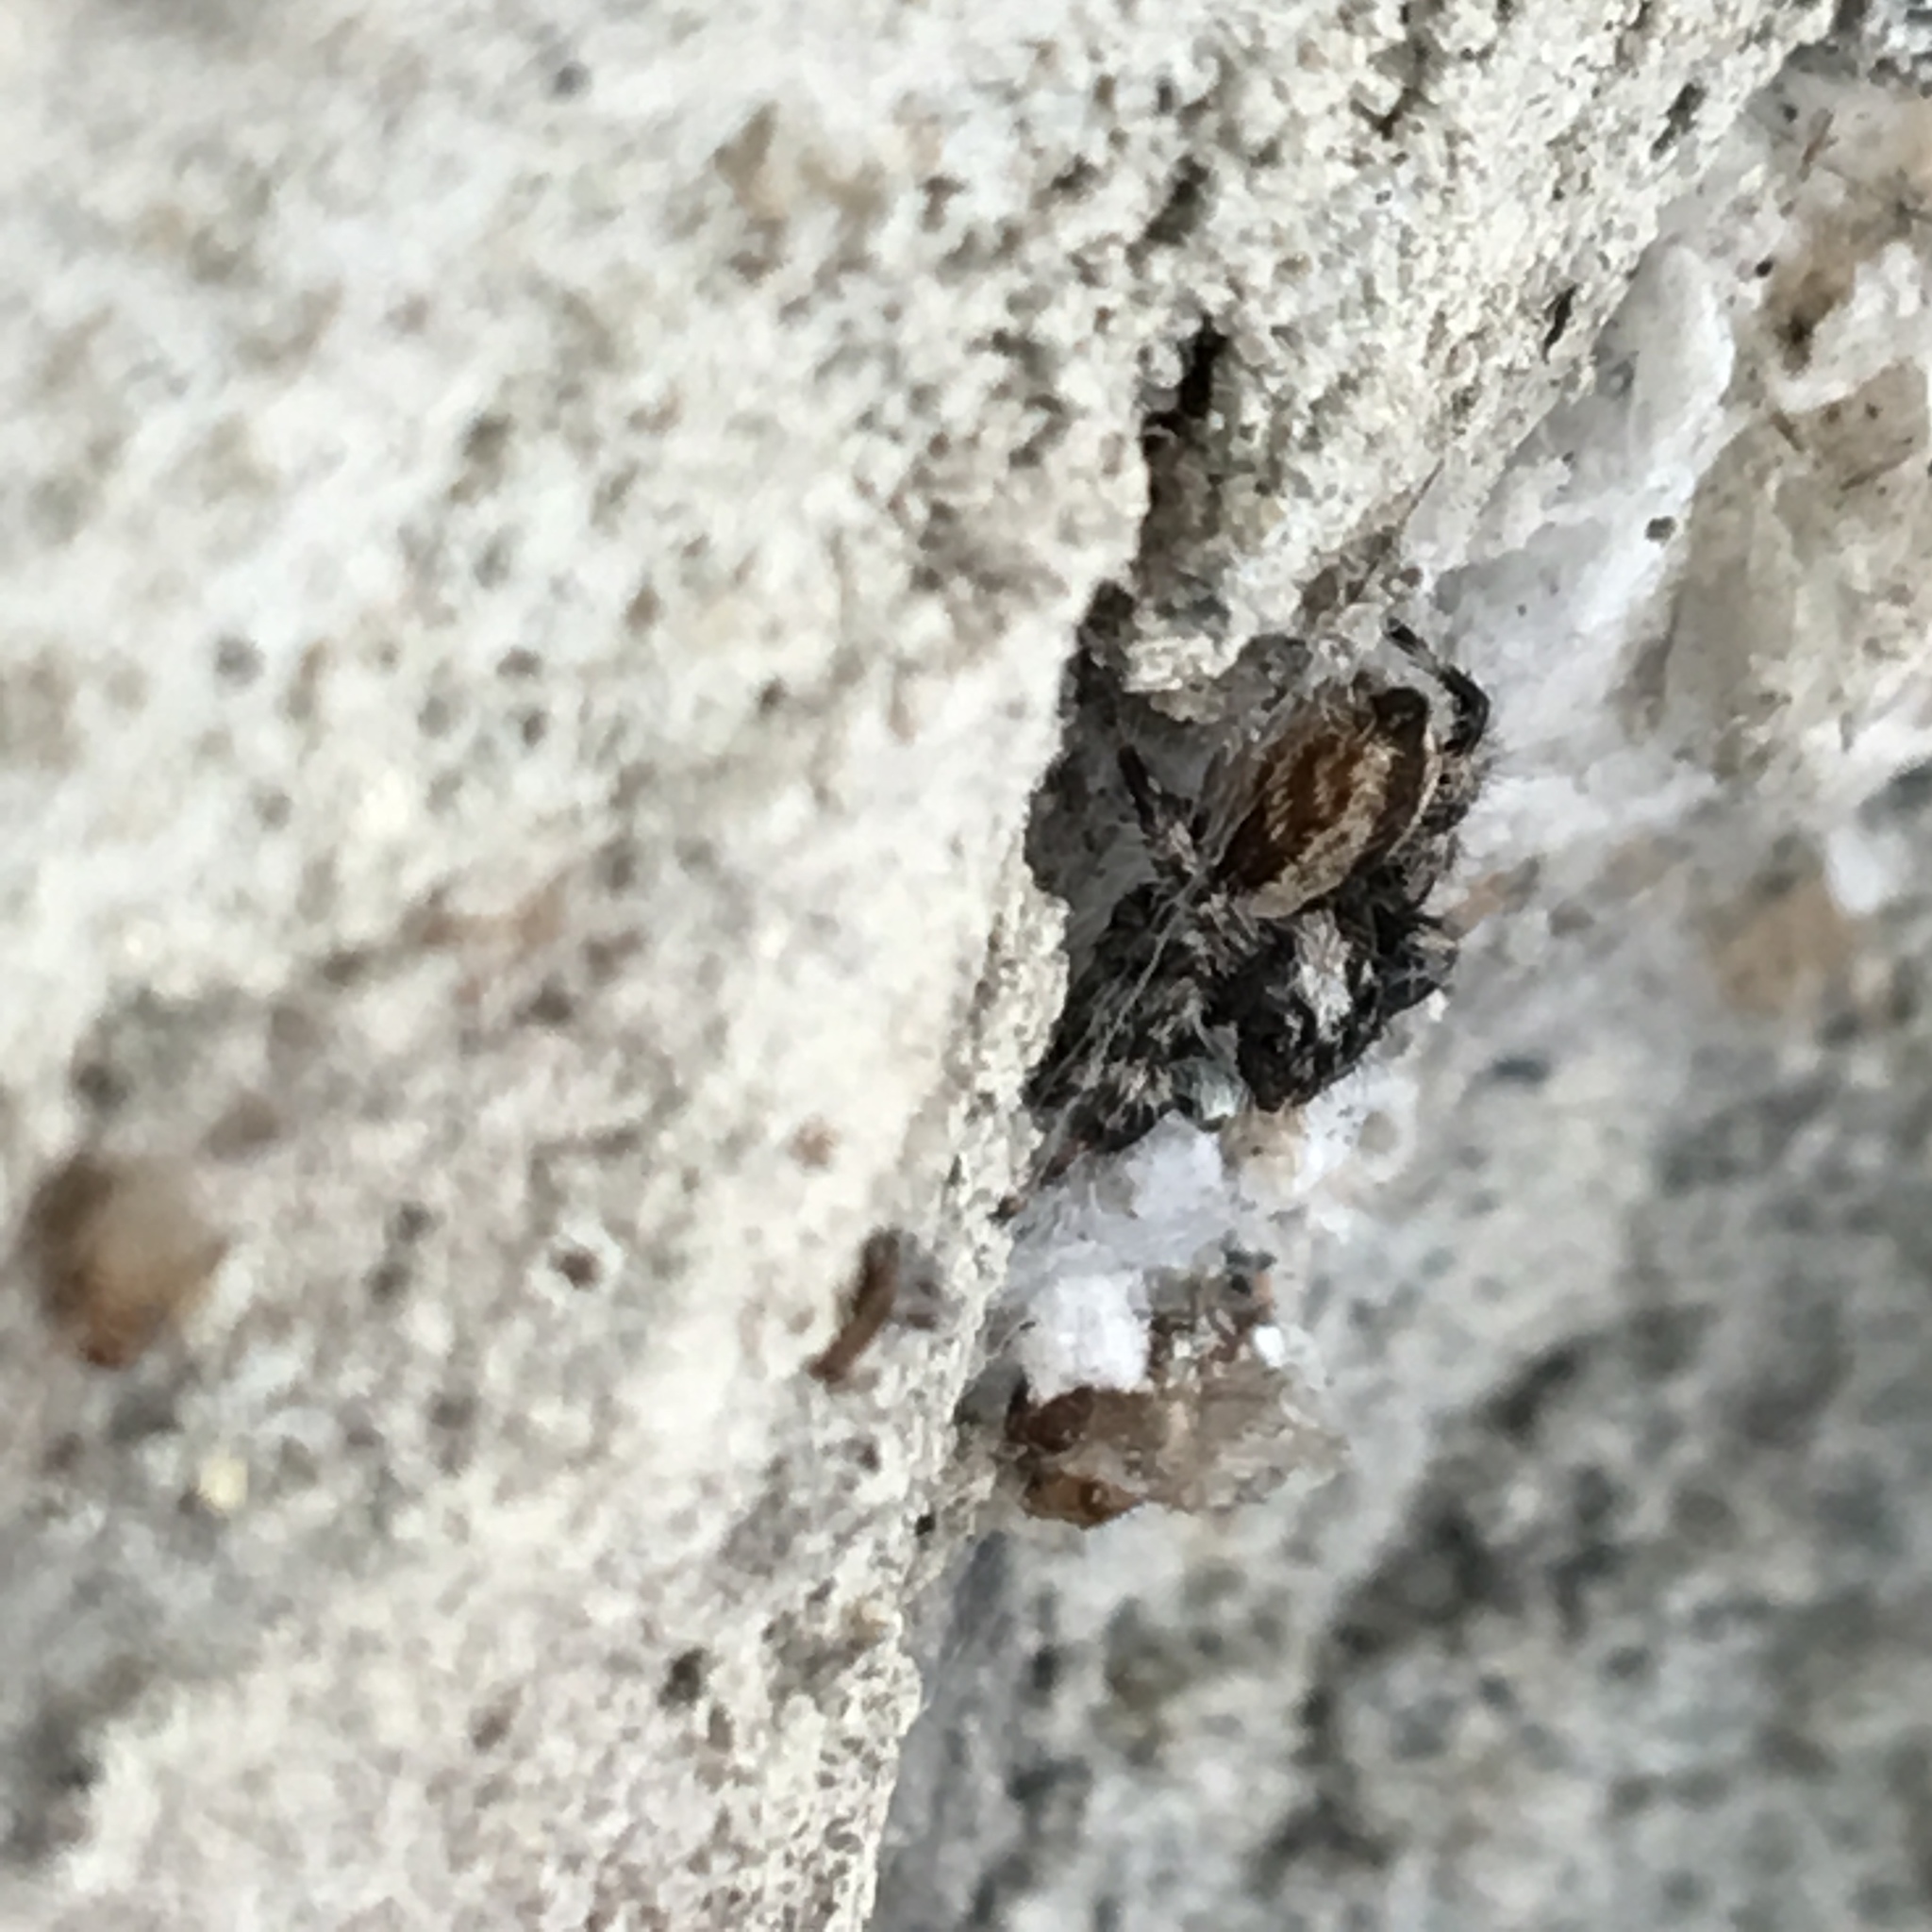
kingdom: Animalia
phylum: Arthropoda
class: Arachnida
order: Araneae
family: Salticidae
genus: Menemerus
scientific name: Menemerus bivittatus
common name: Gray wall jumper
